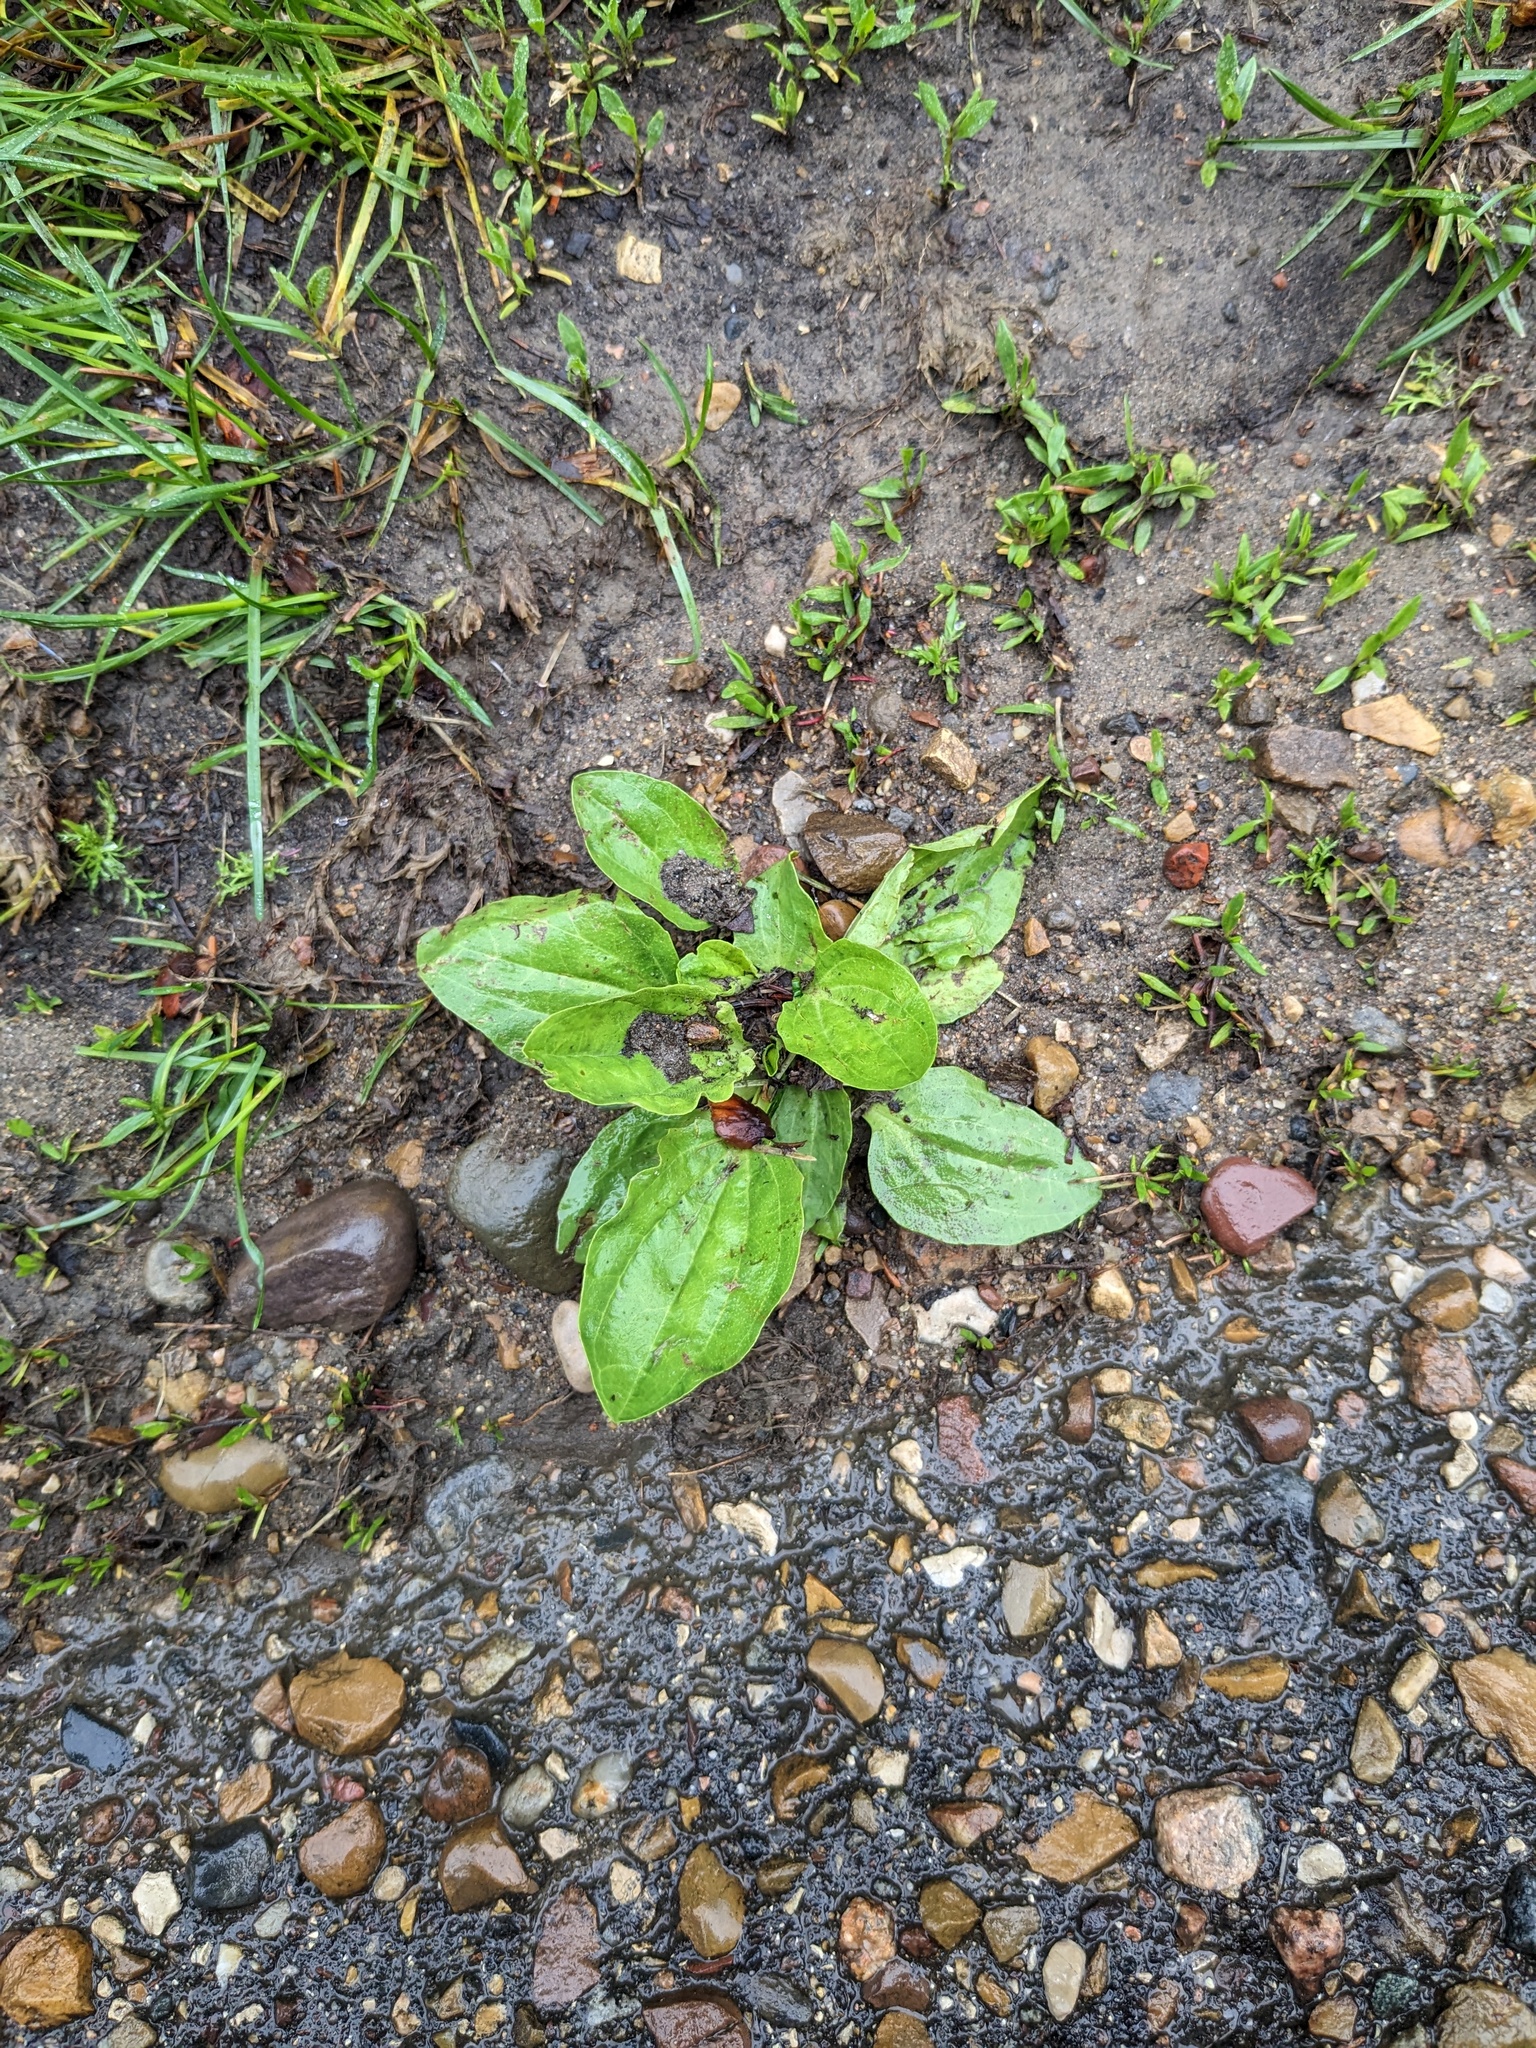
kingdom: Plantae
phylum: Tracheophyta
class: Magnoliopsida
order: Lamiales
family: Plantaginaceae
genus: Plantago
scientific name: Plantago major
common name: Common plantain
